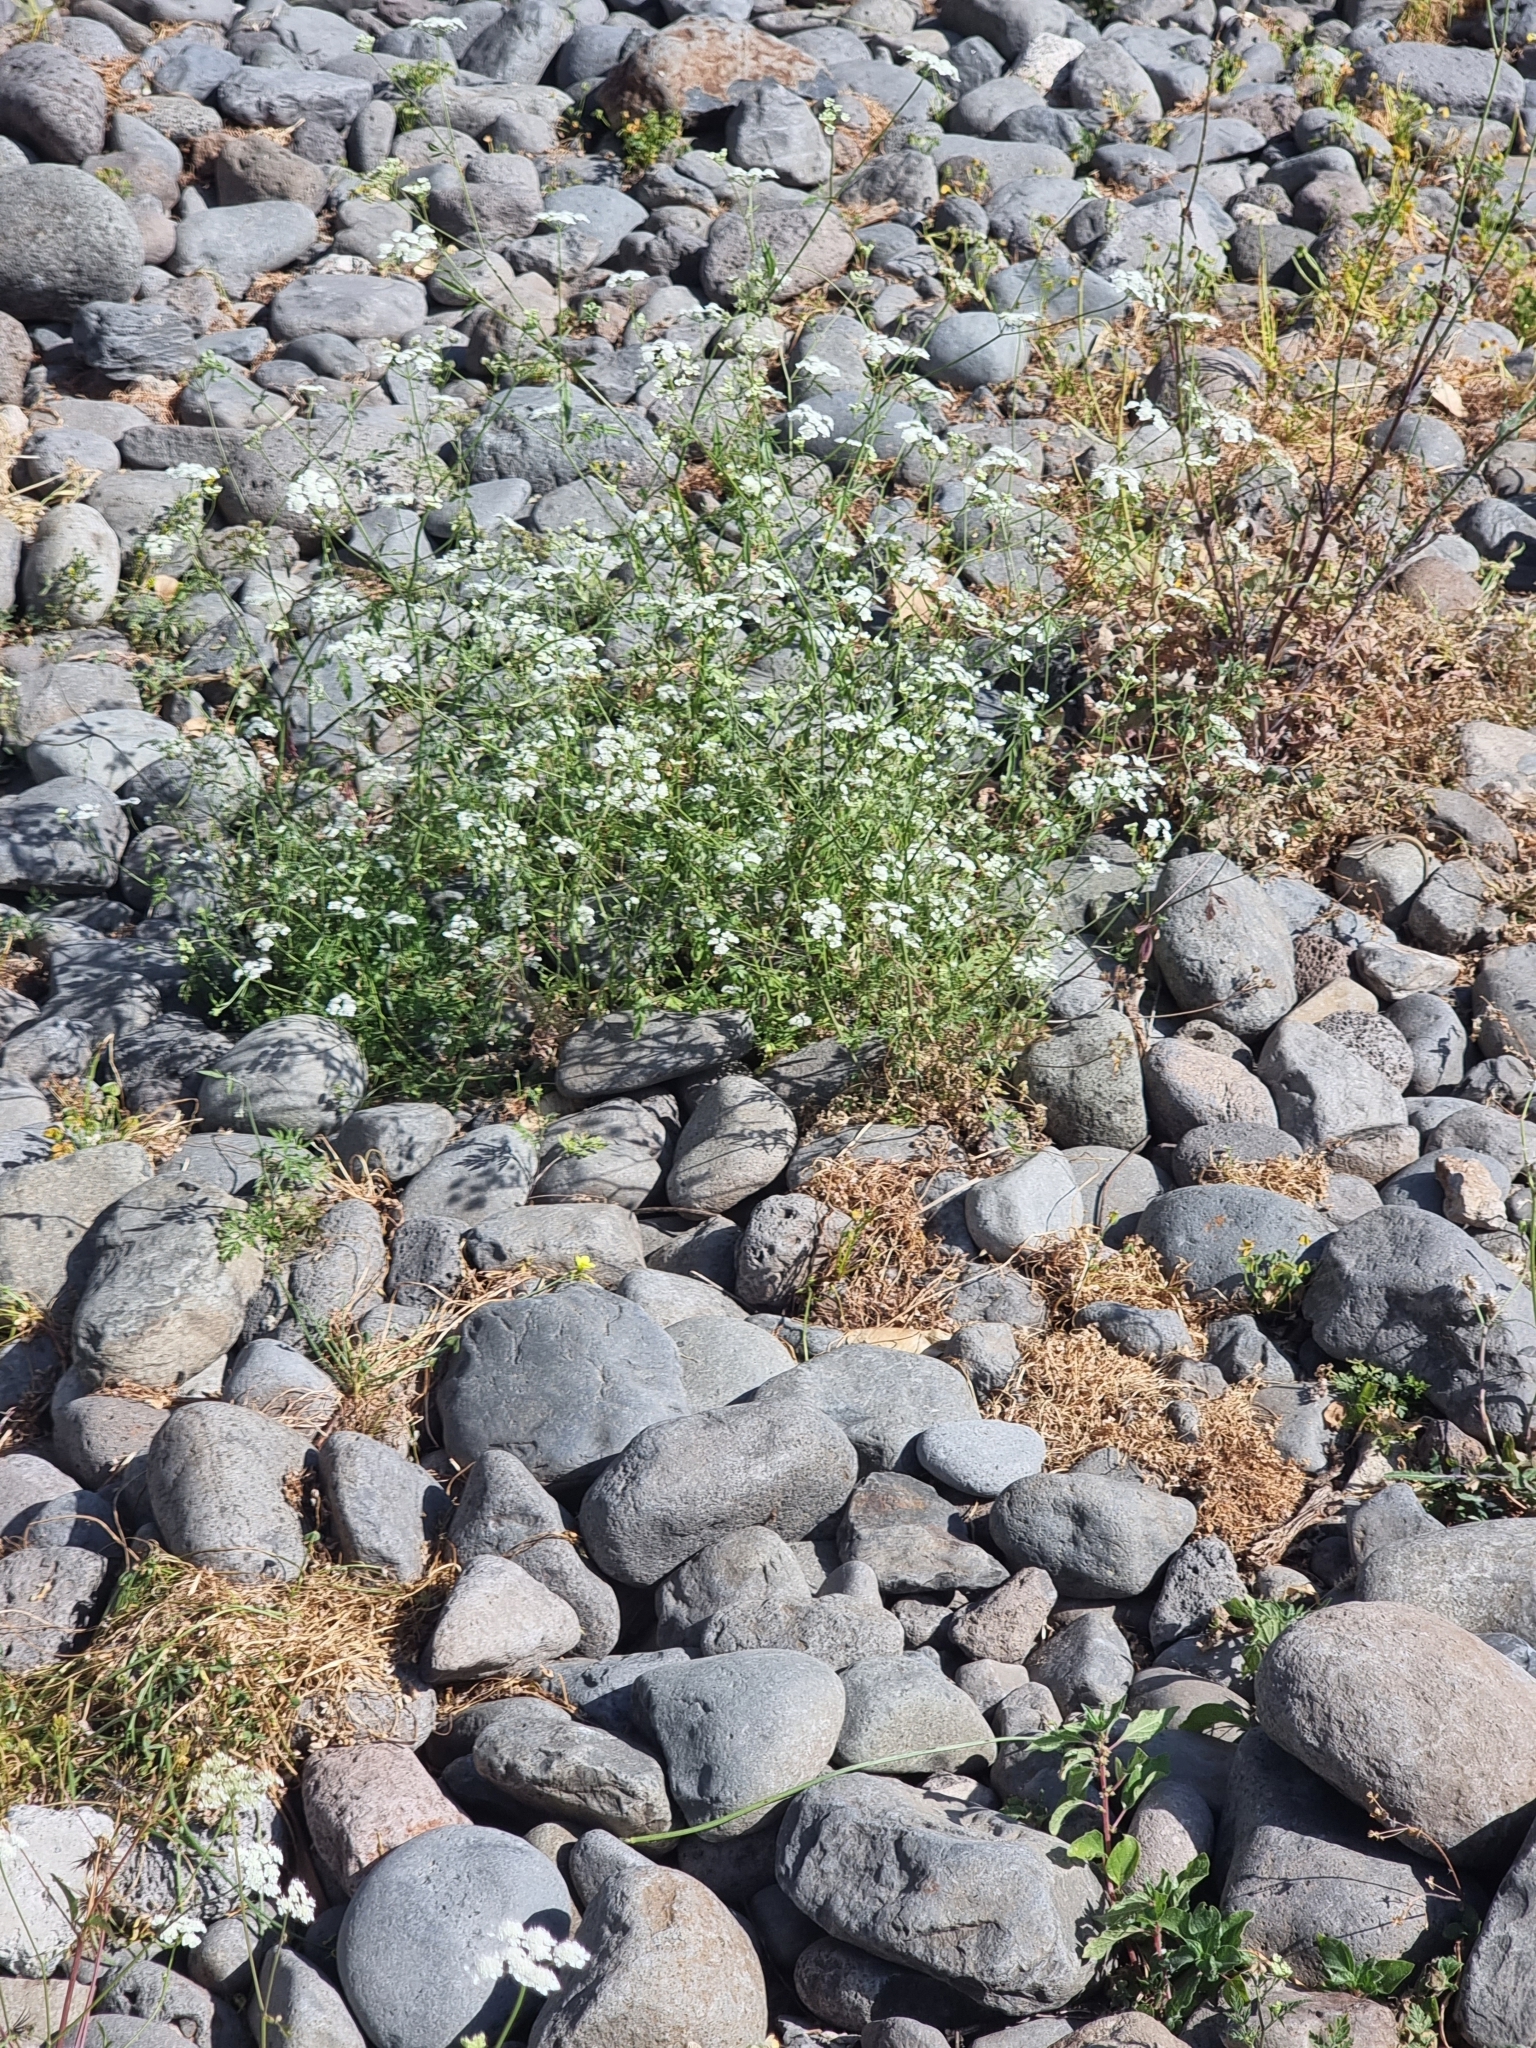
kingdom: Plantae
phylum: Tracheophyta
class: Magnoliopsida
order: Apiales
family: Apiaceae
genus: Torilis
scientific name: Torilis arvensis
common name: Spreading hedge-parsley
